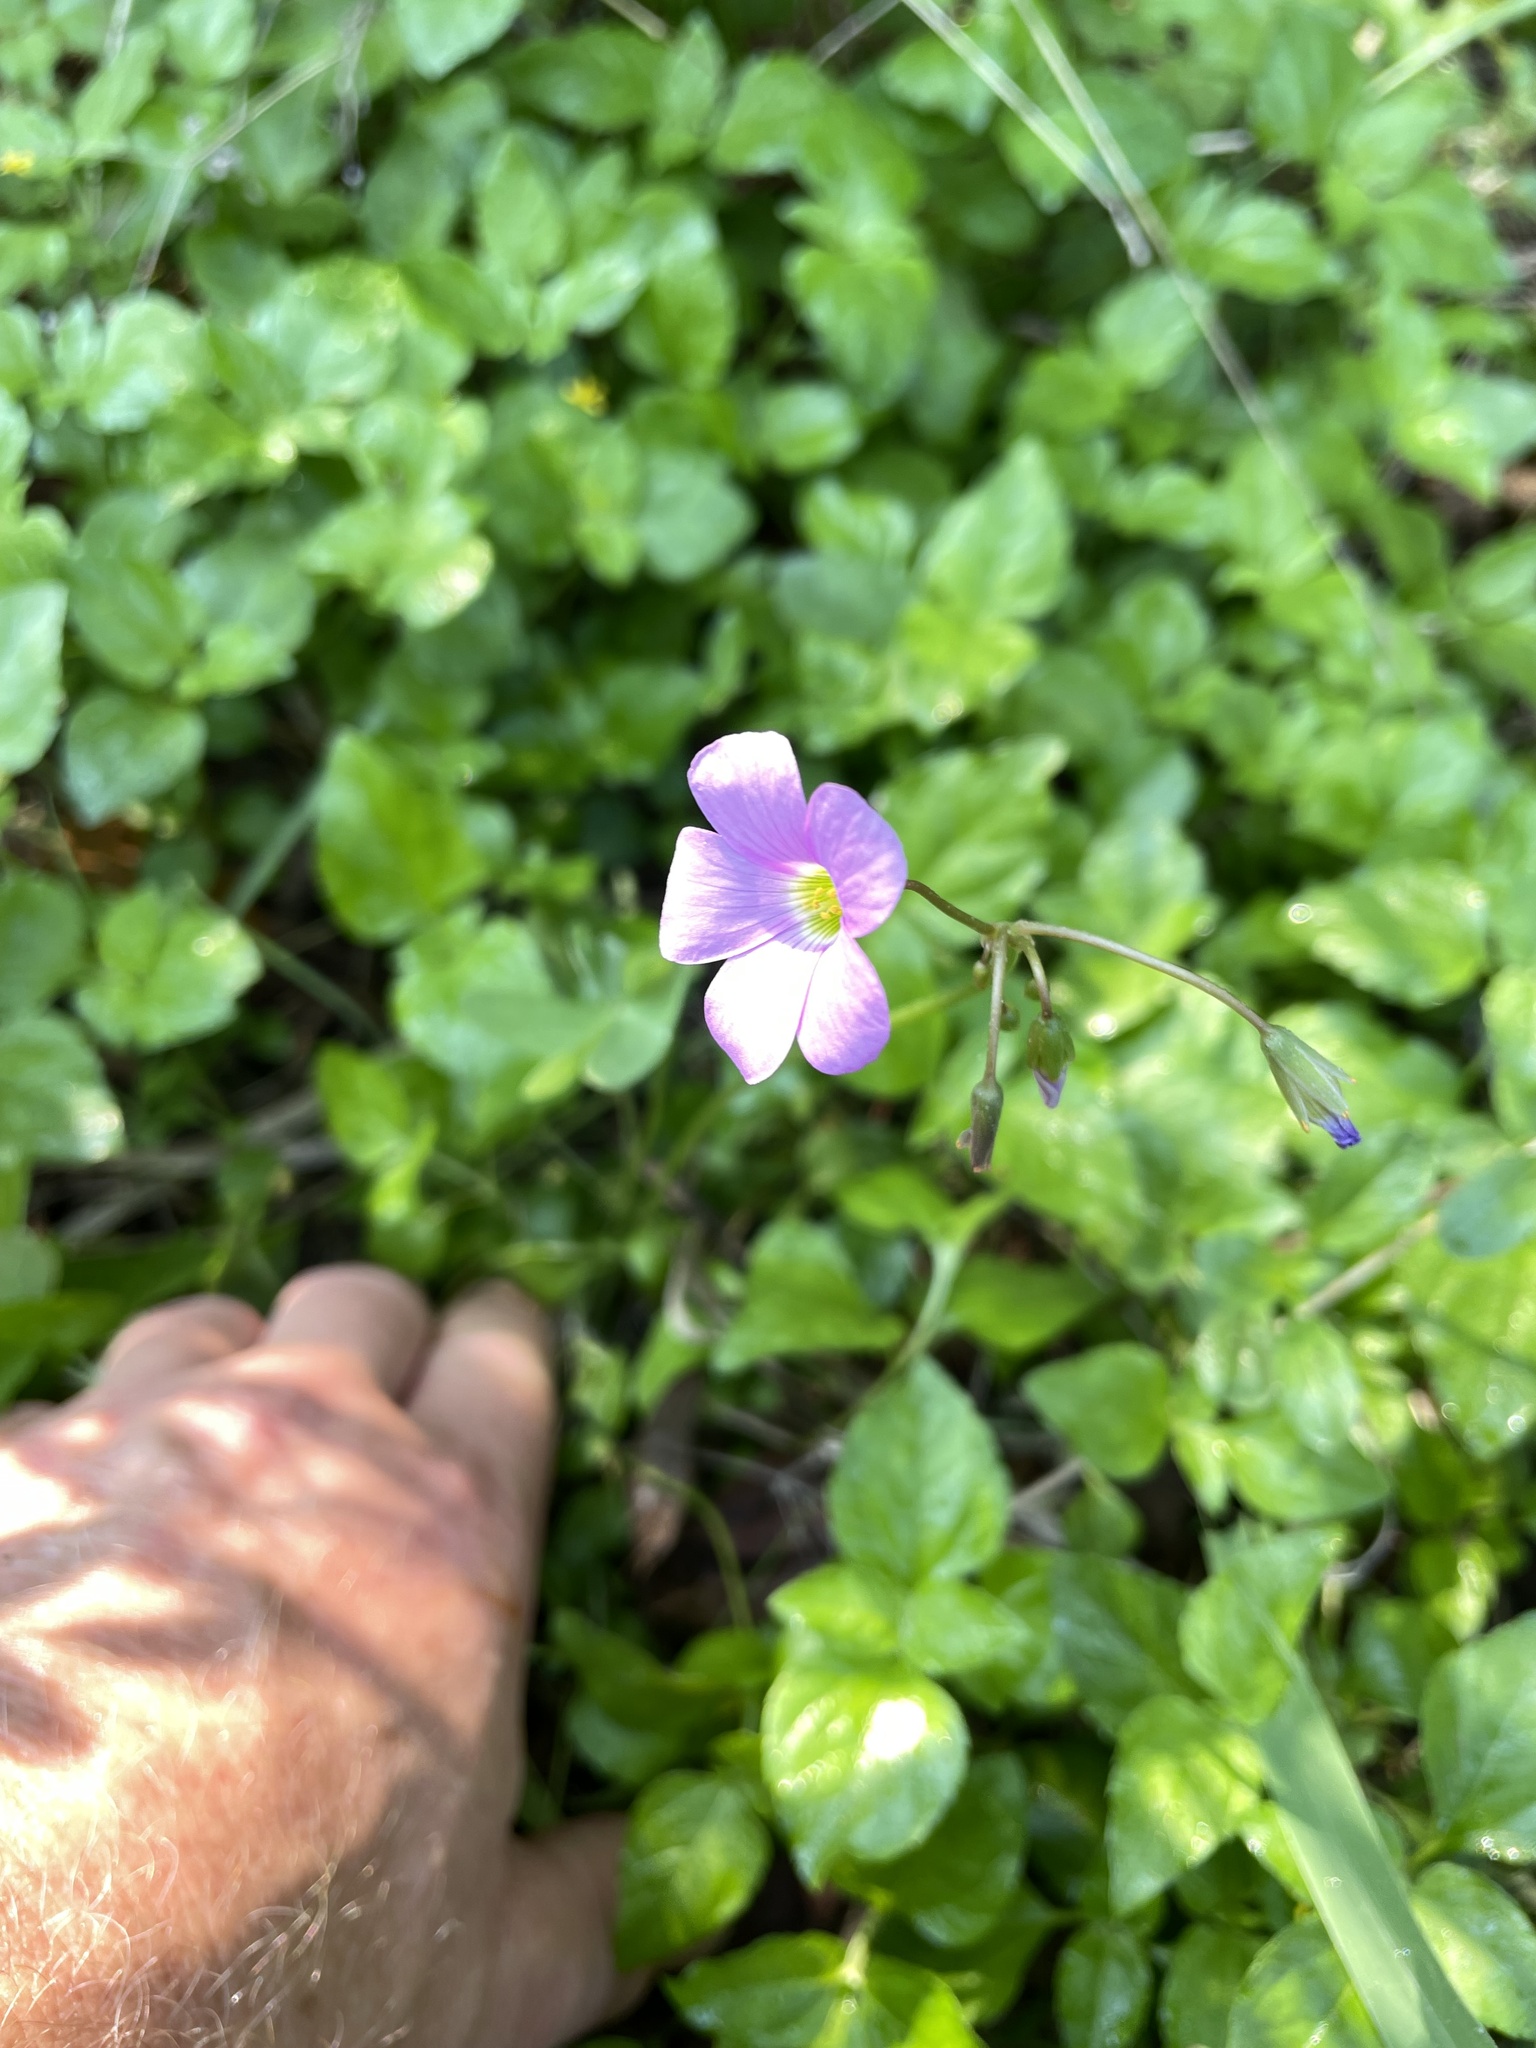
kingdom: Plantae
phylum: Tracheophyta
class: Magnoliopsida
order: Oxalidales
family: Oxalidaceae
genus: Oxalis
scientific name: Oxalis drummondii
